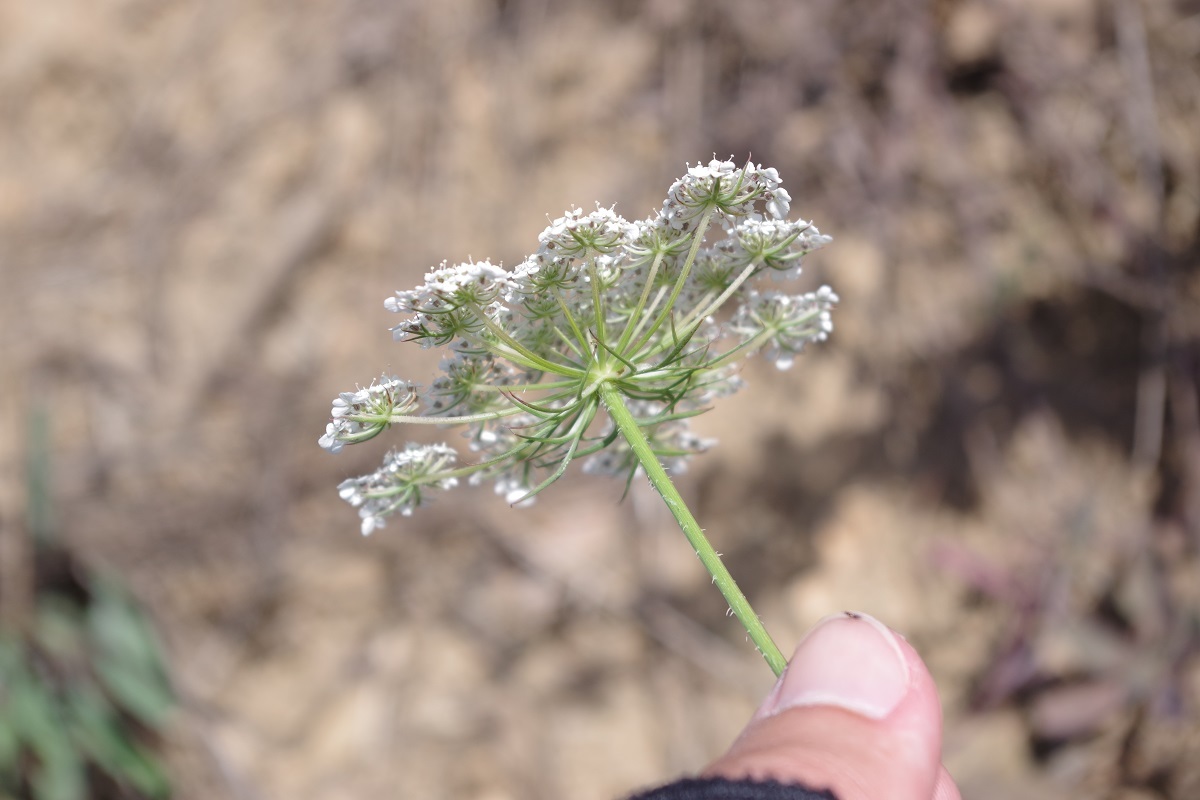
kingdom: Plantae
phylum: Tracheophyta
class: Magnoliopsida
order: Apiales
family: Apiaceae
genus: Daucus
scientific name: Daucus carota
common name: Wild carrot
